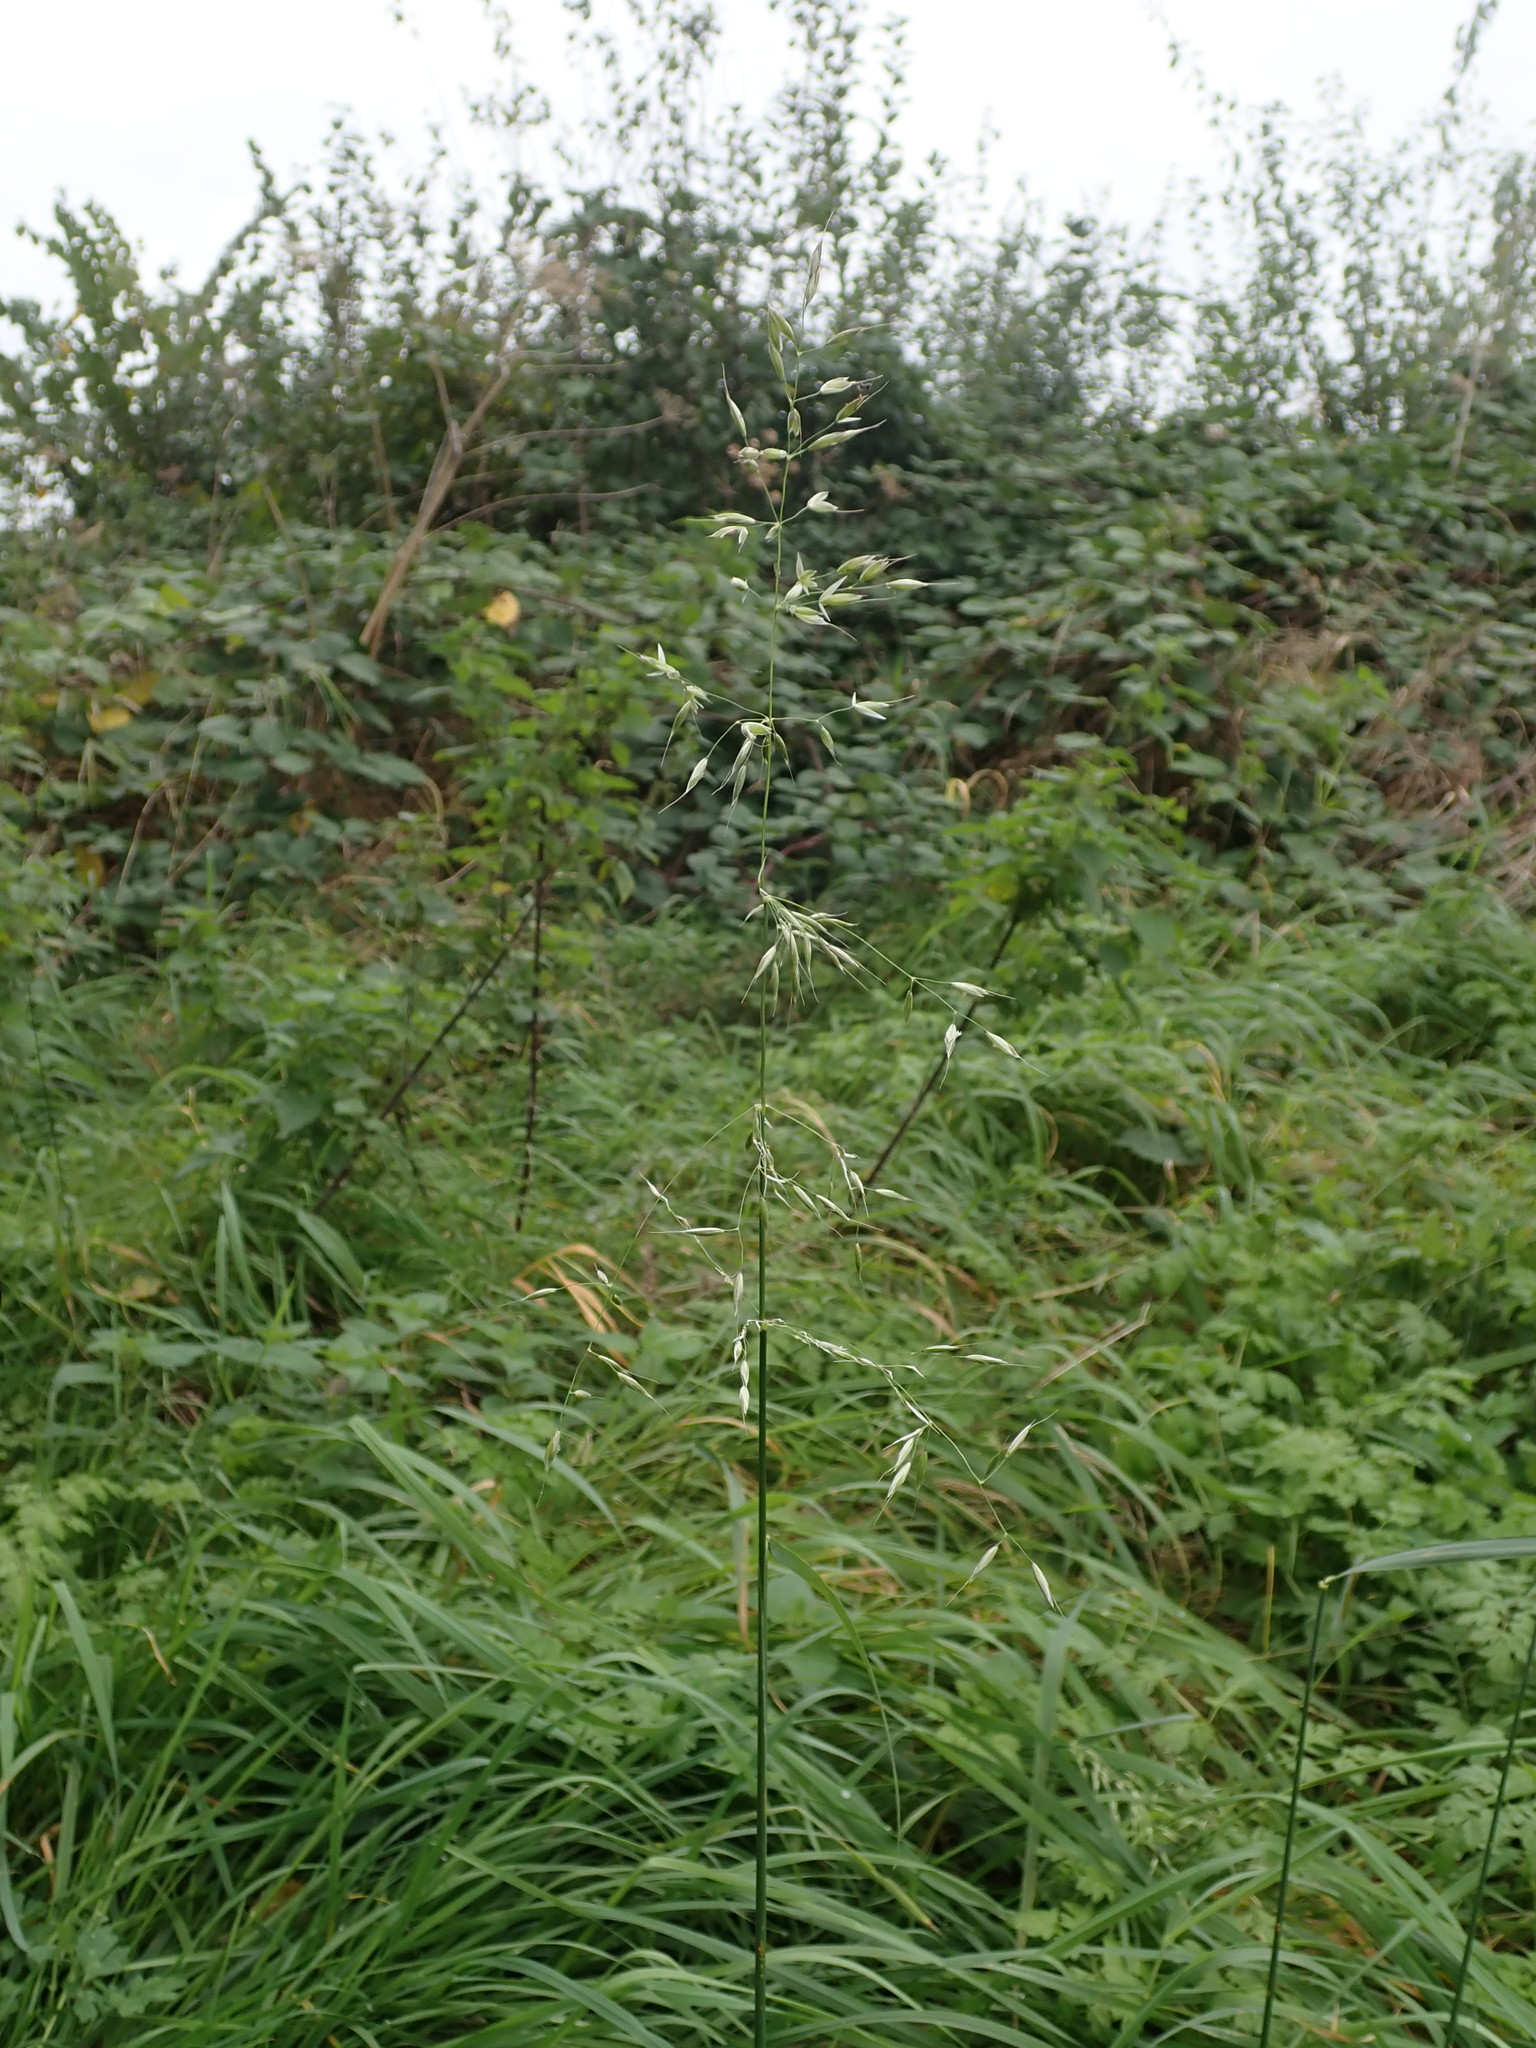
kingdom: Plantae
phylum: Tracheophyta
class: Liliopsida
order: Poales
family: Poaceae
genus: Arrhenatherum
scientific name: Arrhenatherum elatius
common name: Tall oatgrass
